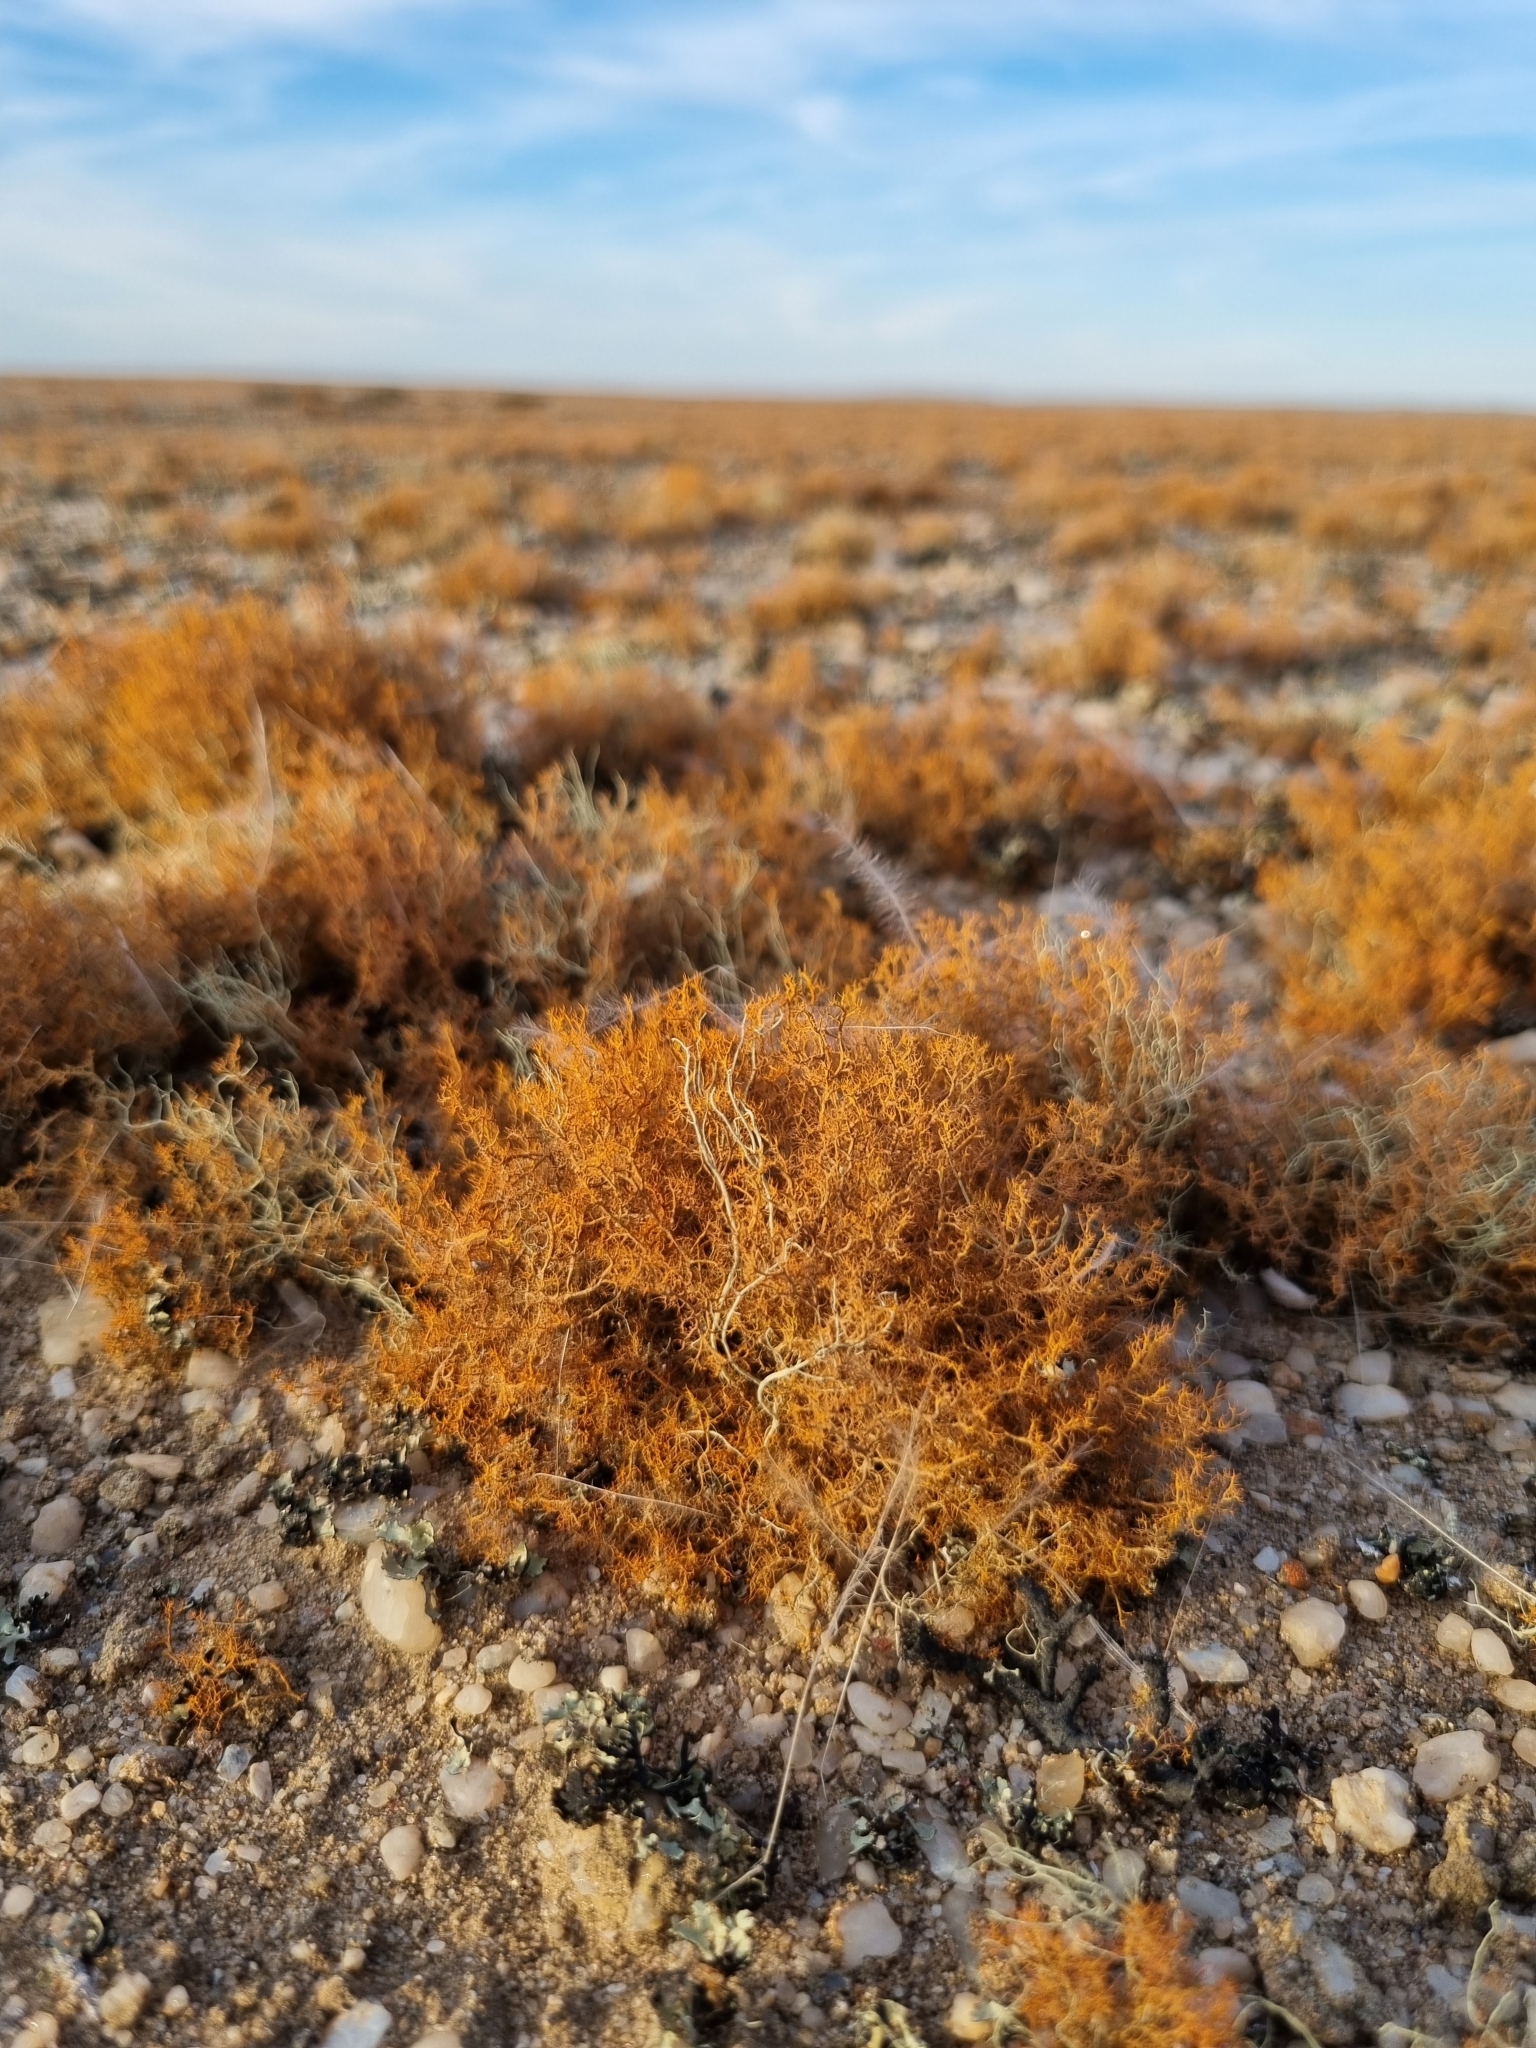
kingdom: Fungi
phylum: Ascomycota
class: Lecanoromycetes
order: Teloschistales
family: Teloschistaceae
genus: Teloschistes
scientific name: Teloschistes capensis
